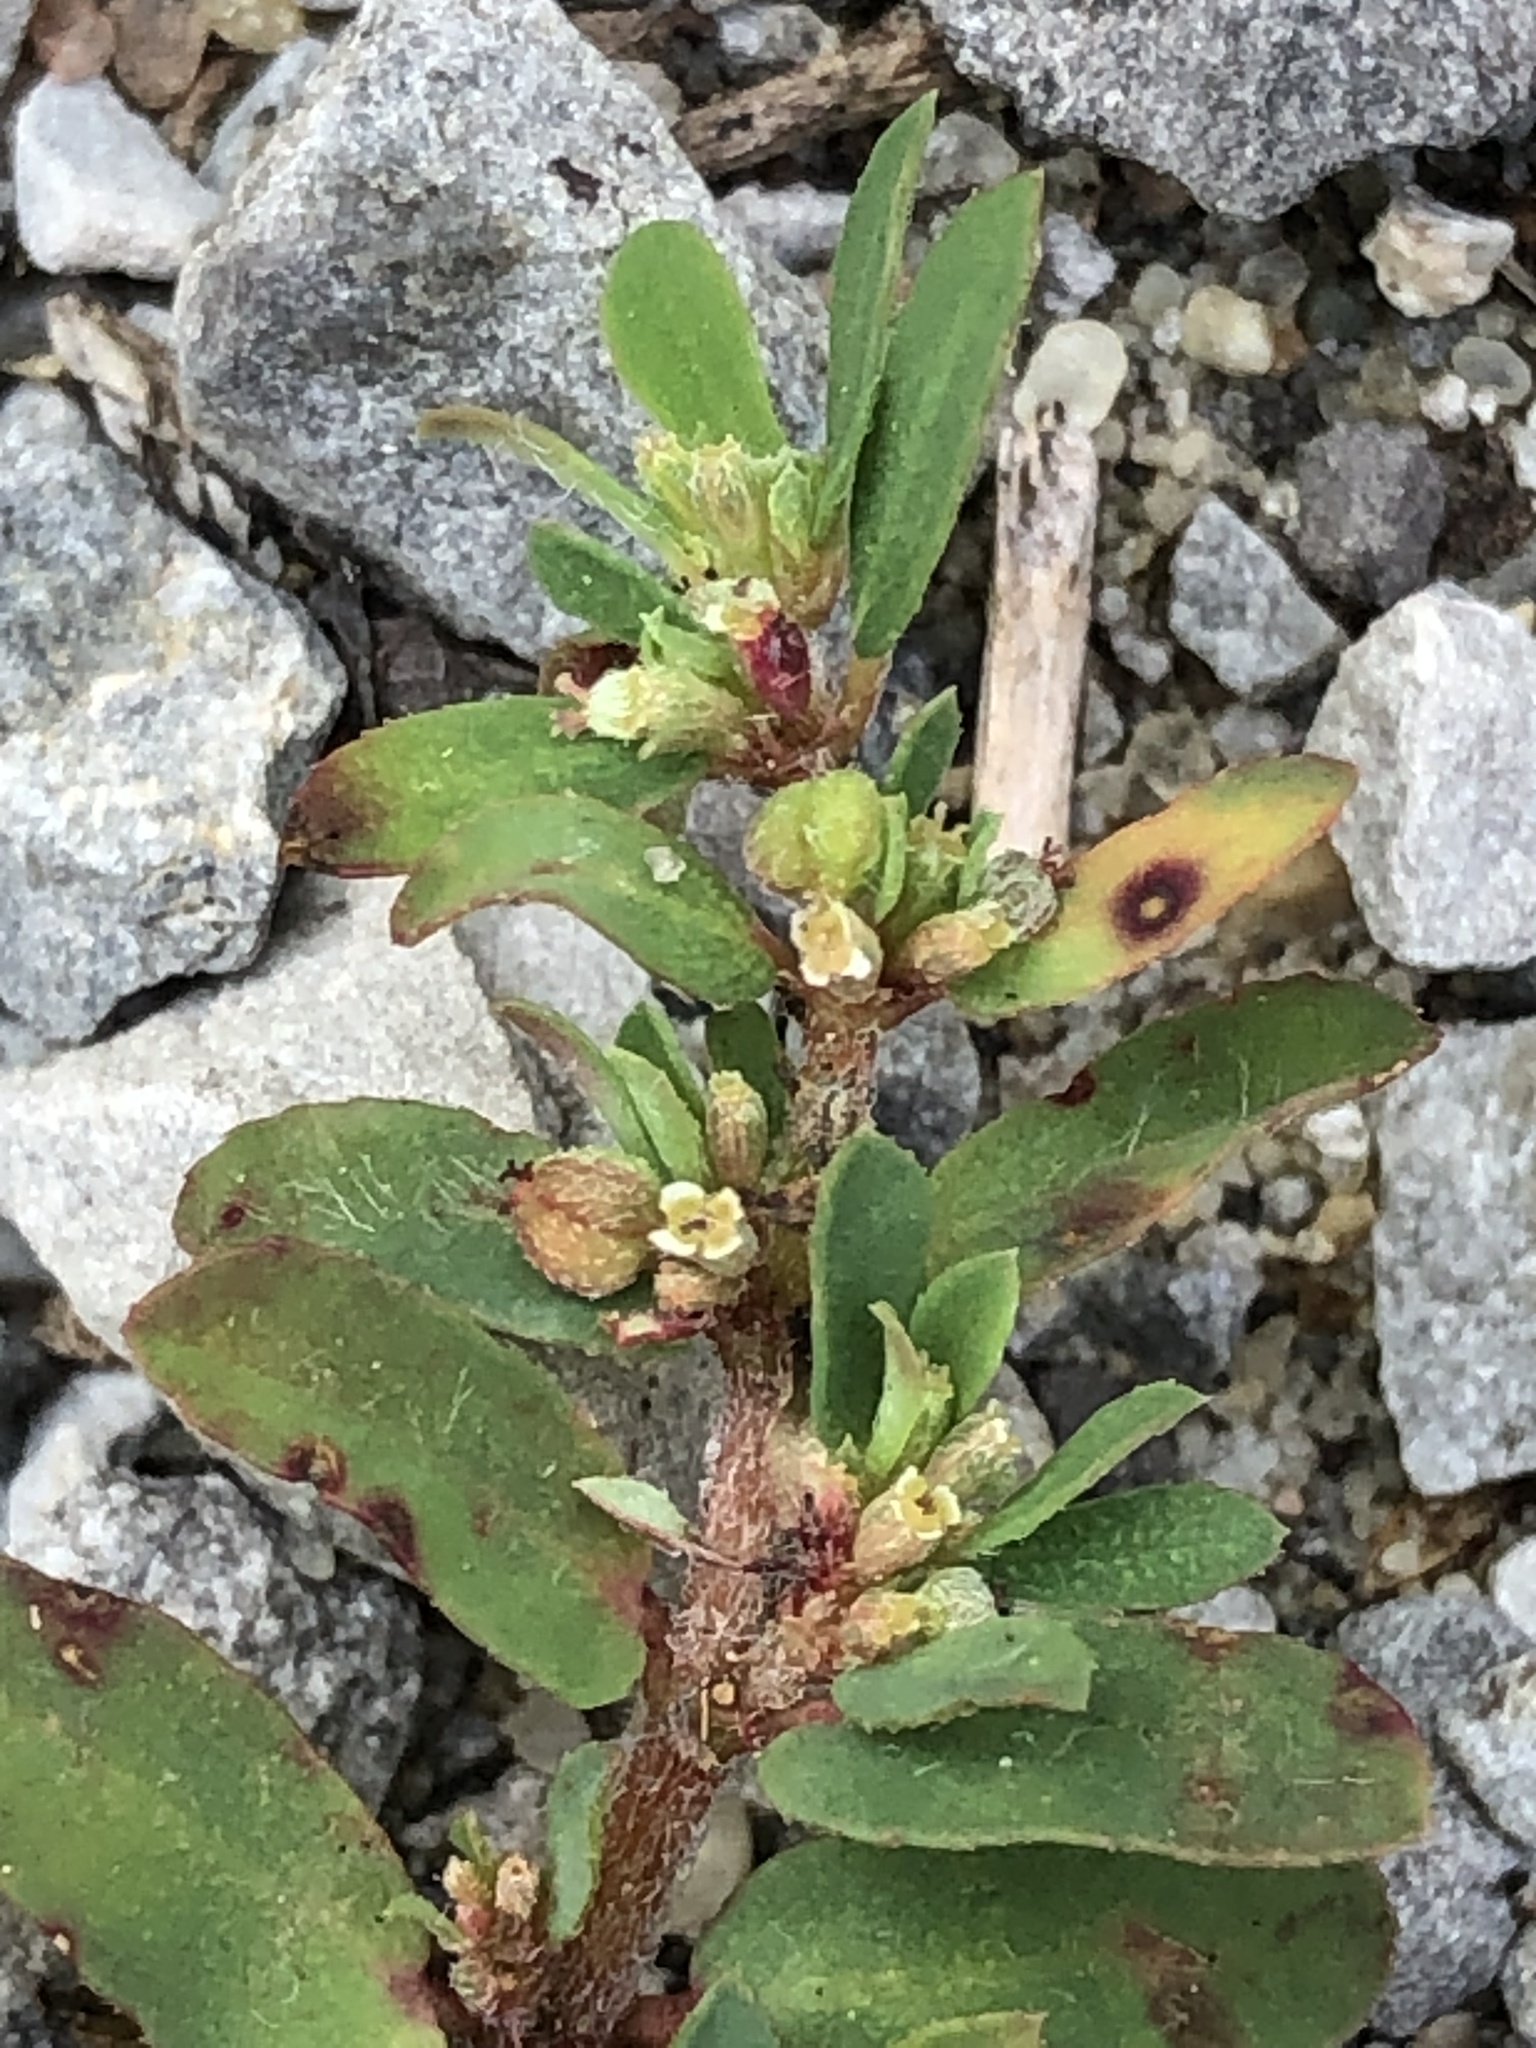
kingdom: Plantae
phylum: Tracheophyta
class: Magnoliopsida
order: Malpighiales
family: Euphorbiaceae
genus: Euphorbia
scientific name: Euphorbia maculata
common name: Spotted spurge
